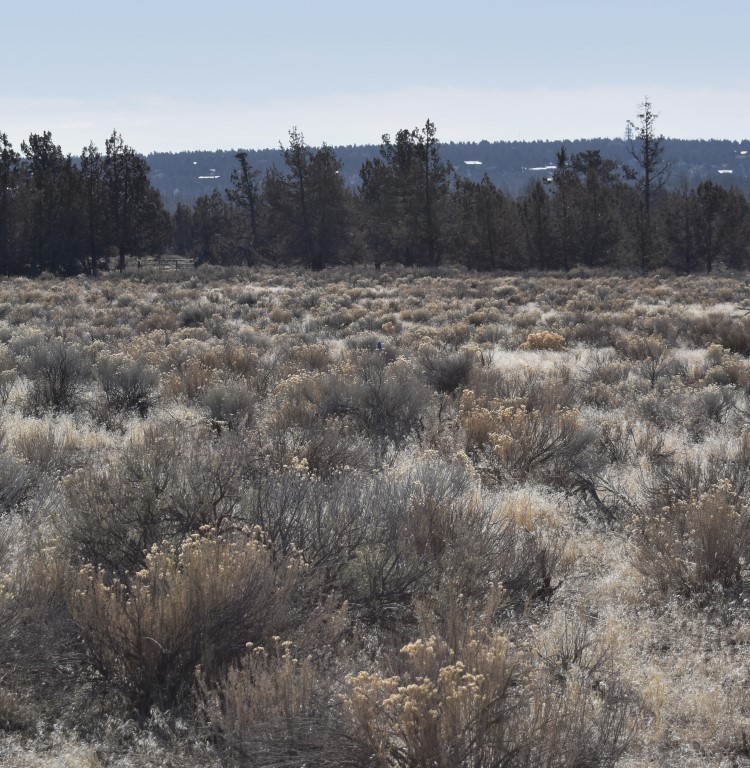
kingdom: Animalia
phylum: Chordata
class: Aves
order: Passeriformes
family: Turdidae
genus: Sialia
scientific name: Sialia
